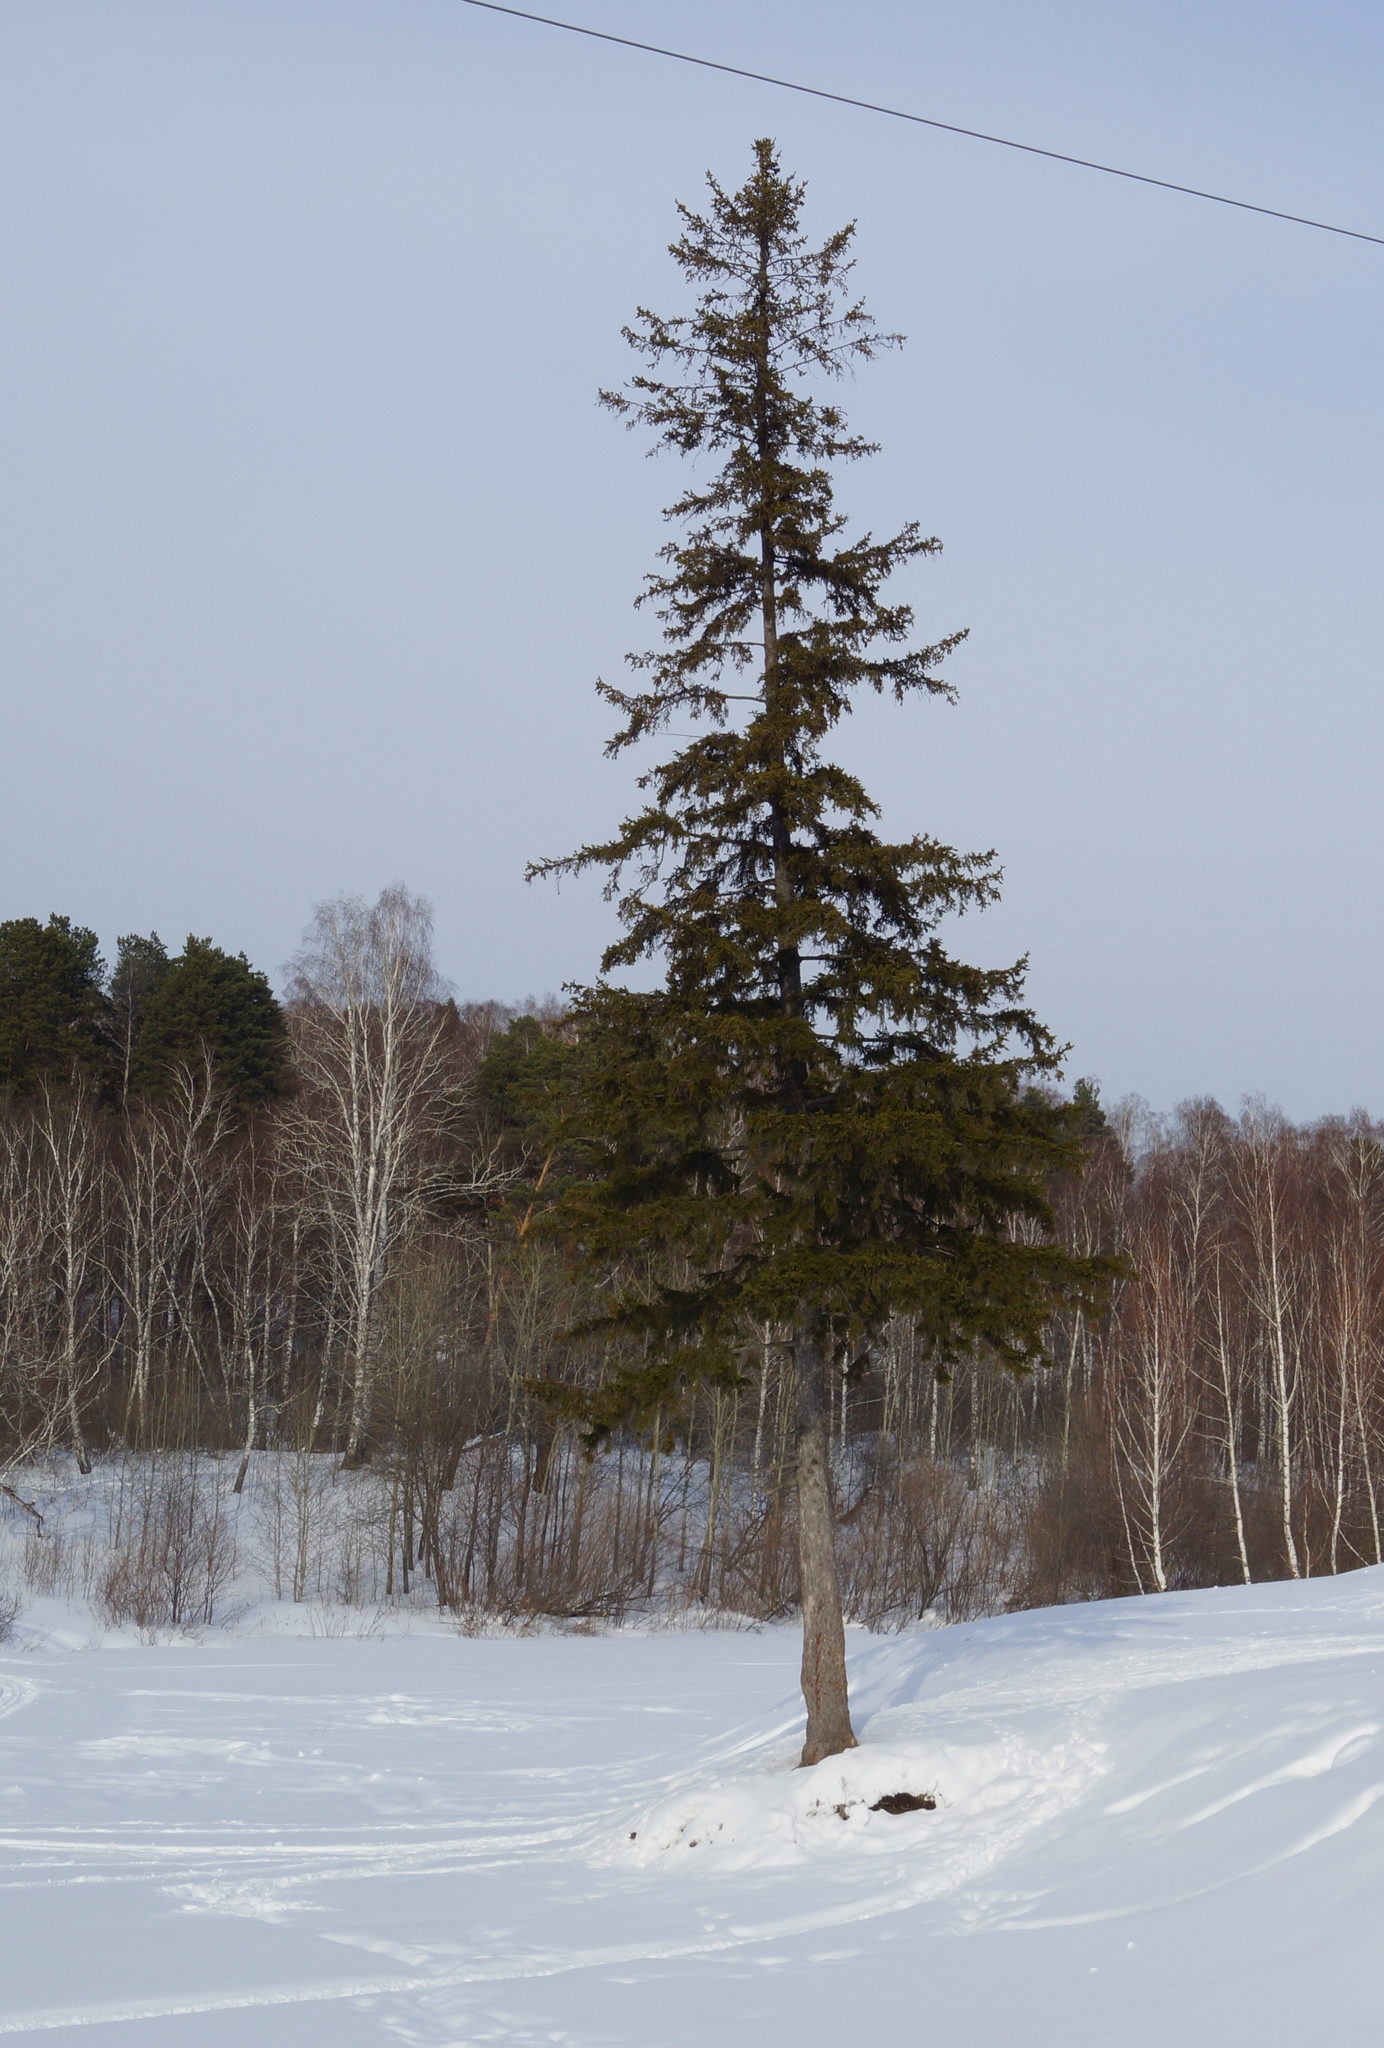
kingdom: Plantae
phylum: Tracheophyta
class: Pinopsida
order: Pinales
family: Pinaceae
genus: Picea
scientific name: Picea obovata
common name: Siberian spruce
